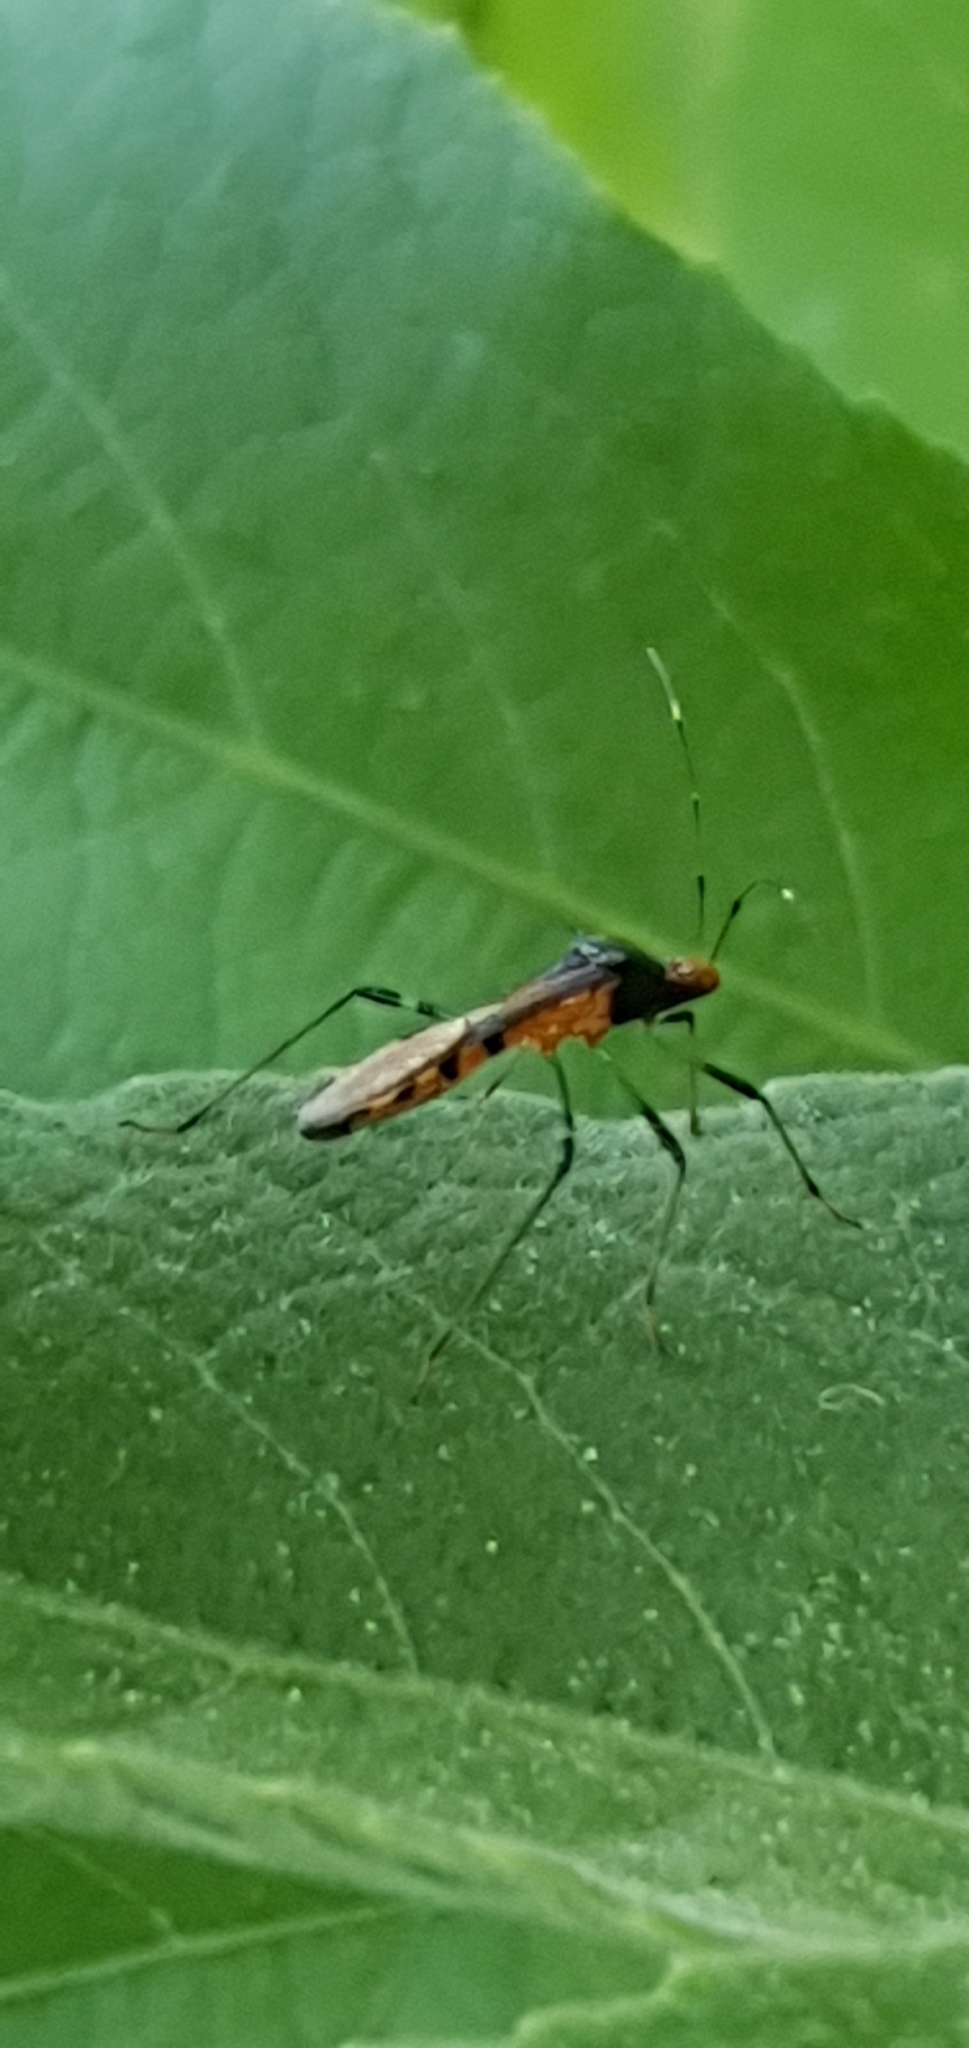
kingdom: Animalia
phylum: Arthropoda
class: Insecta
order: Hemiptera
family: Alydidae
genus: Noliphus
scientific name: Noliphus erythrocephalus
